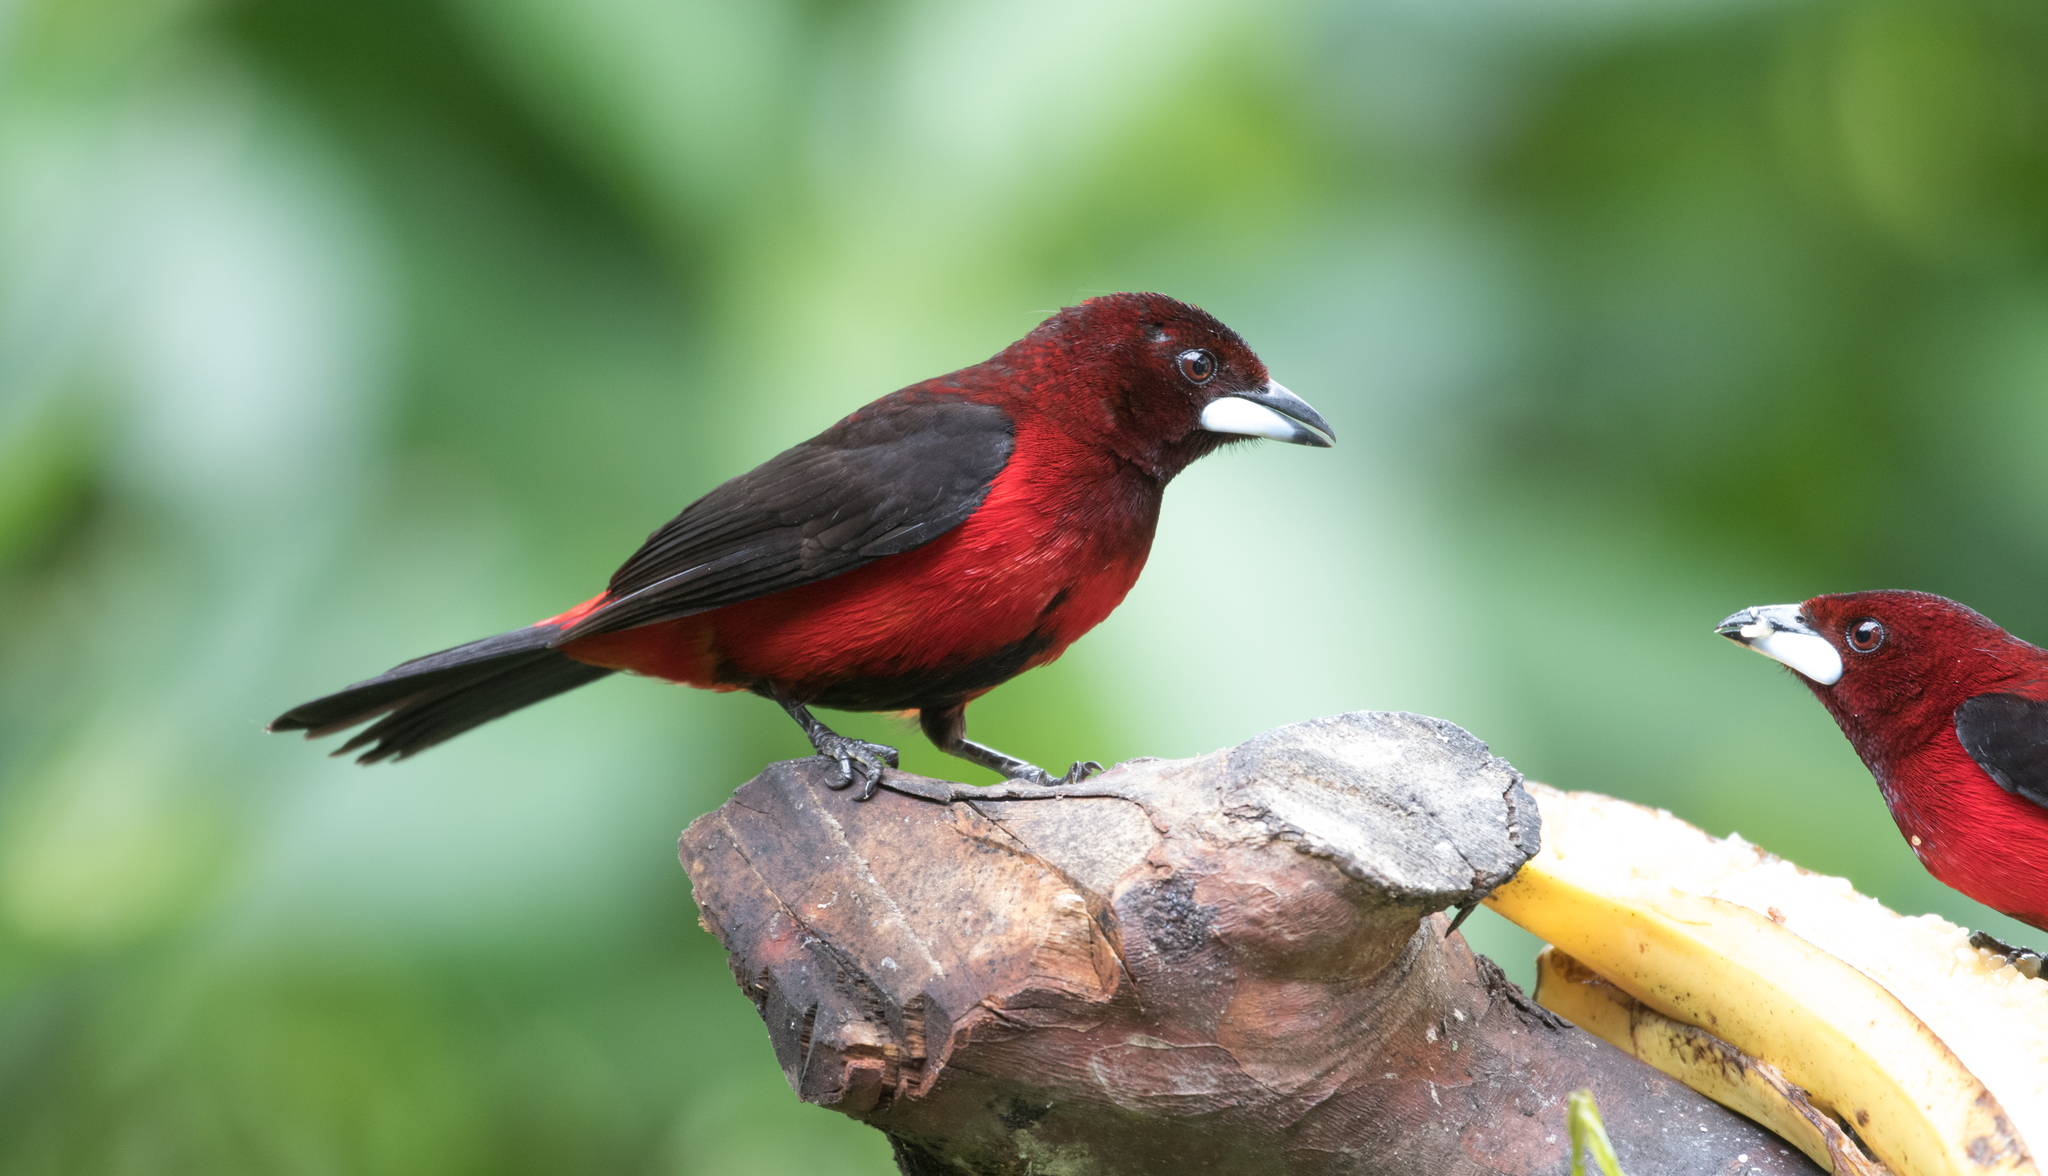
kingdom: Animalia
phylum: Chordata
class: Aves
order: Passeriformes
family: Thraupidae
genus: Ramphocelus
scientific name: Ramphocelus dimidiatus
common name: Crimson-backed tanager
